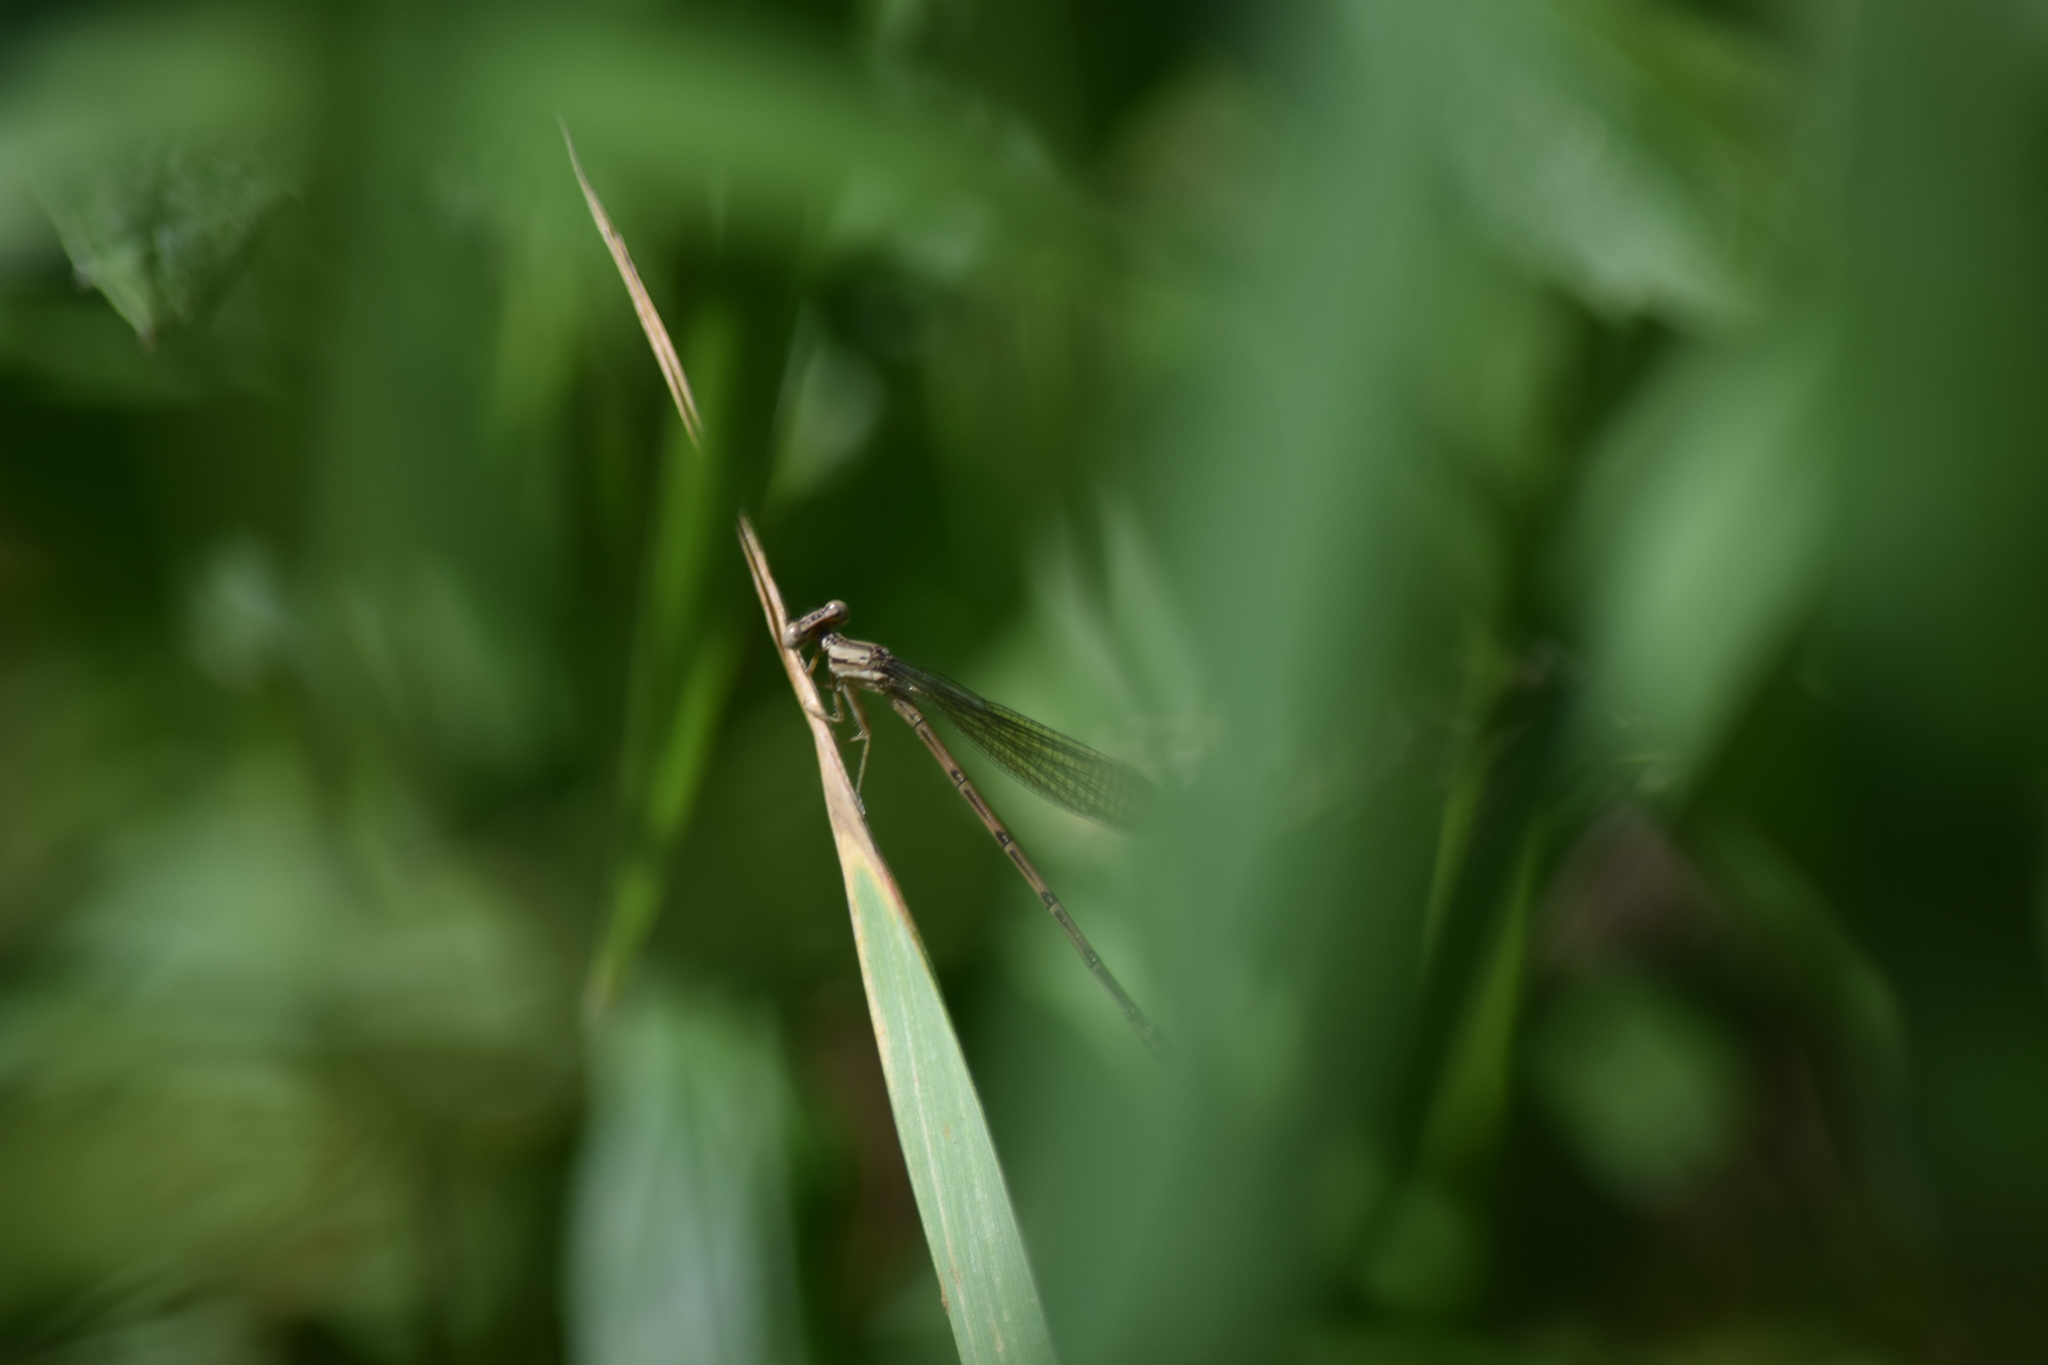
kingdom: Animalia
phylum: Arthropoda
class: Insecta
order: Odonata
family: Coenagrionidae
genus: Argia
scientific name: Argia fumipennis
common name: Variable dancer
